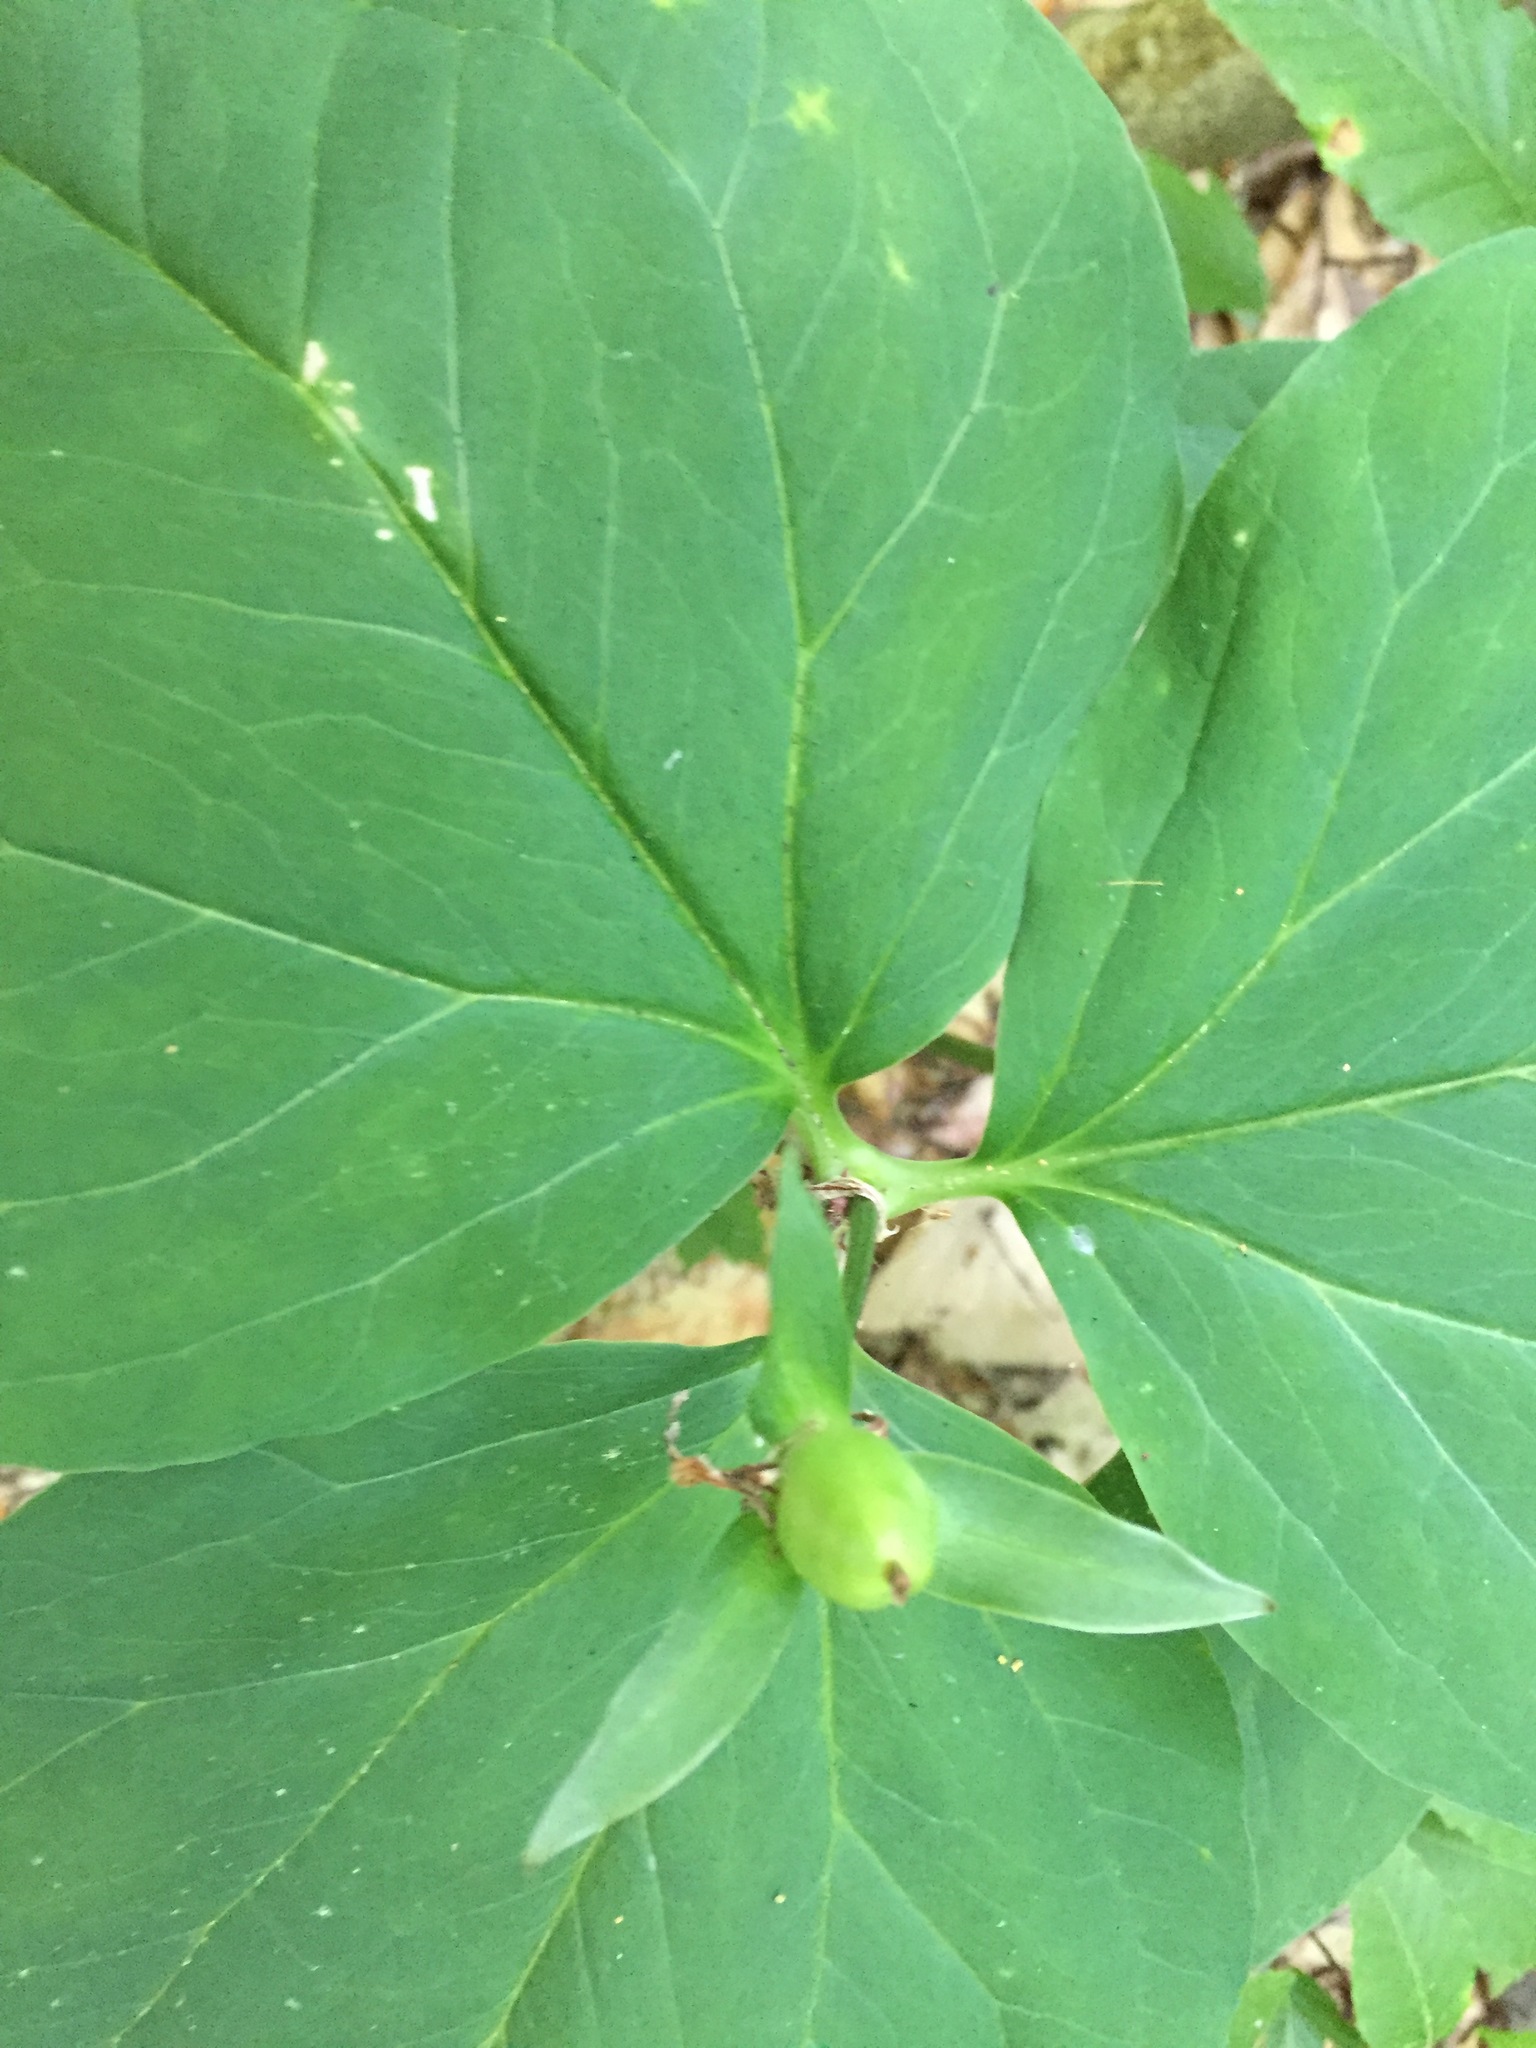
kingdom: Plantae
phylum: Tracheophyta
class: Liliopsida
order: Liliales
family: Melanthiaceae
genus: Trillium
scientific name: Trillium undulatum
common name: Paint trillium
